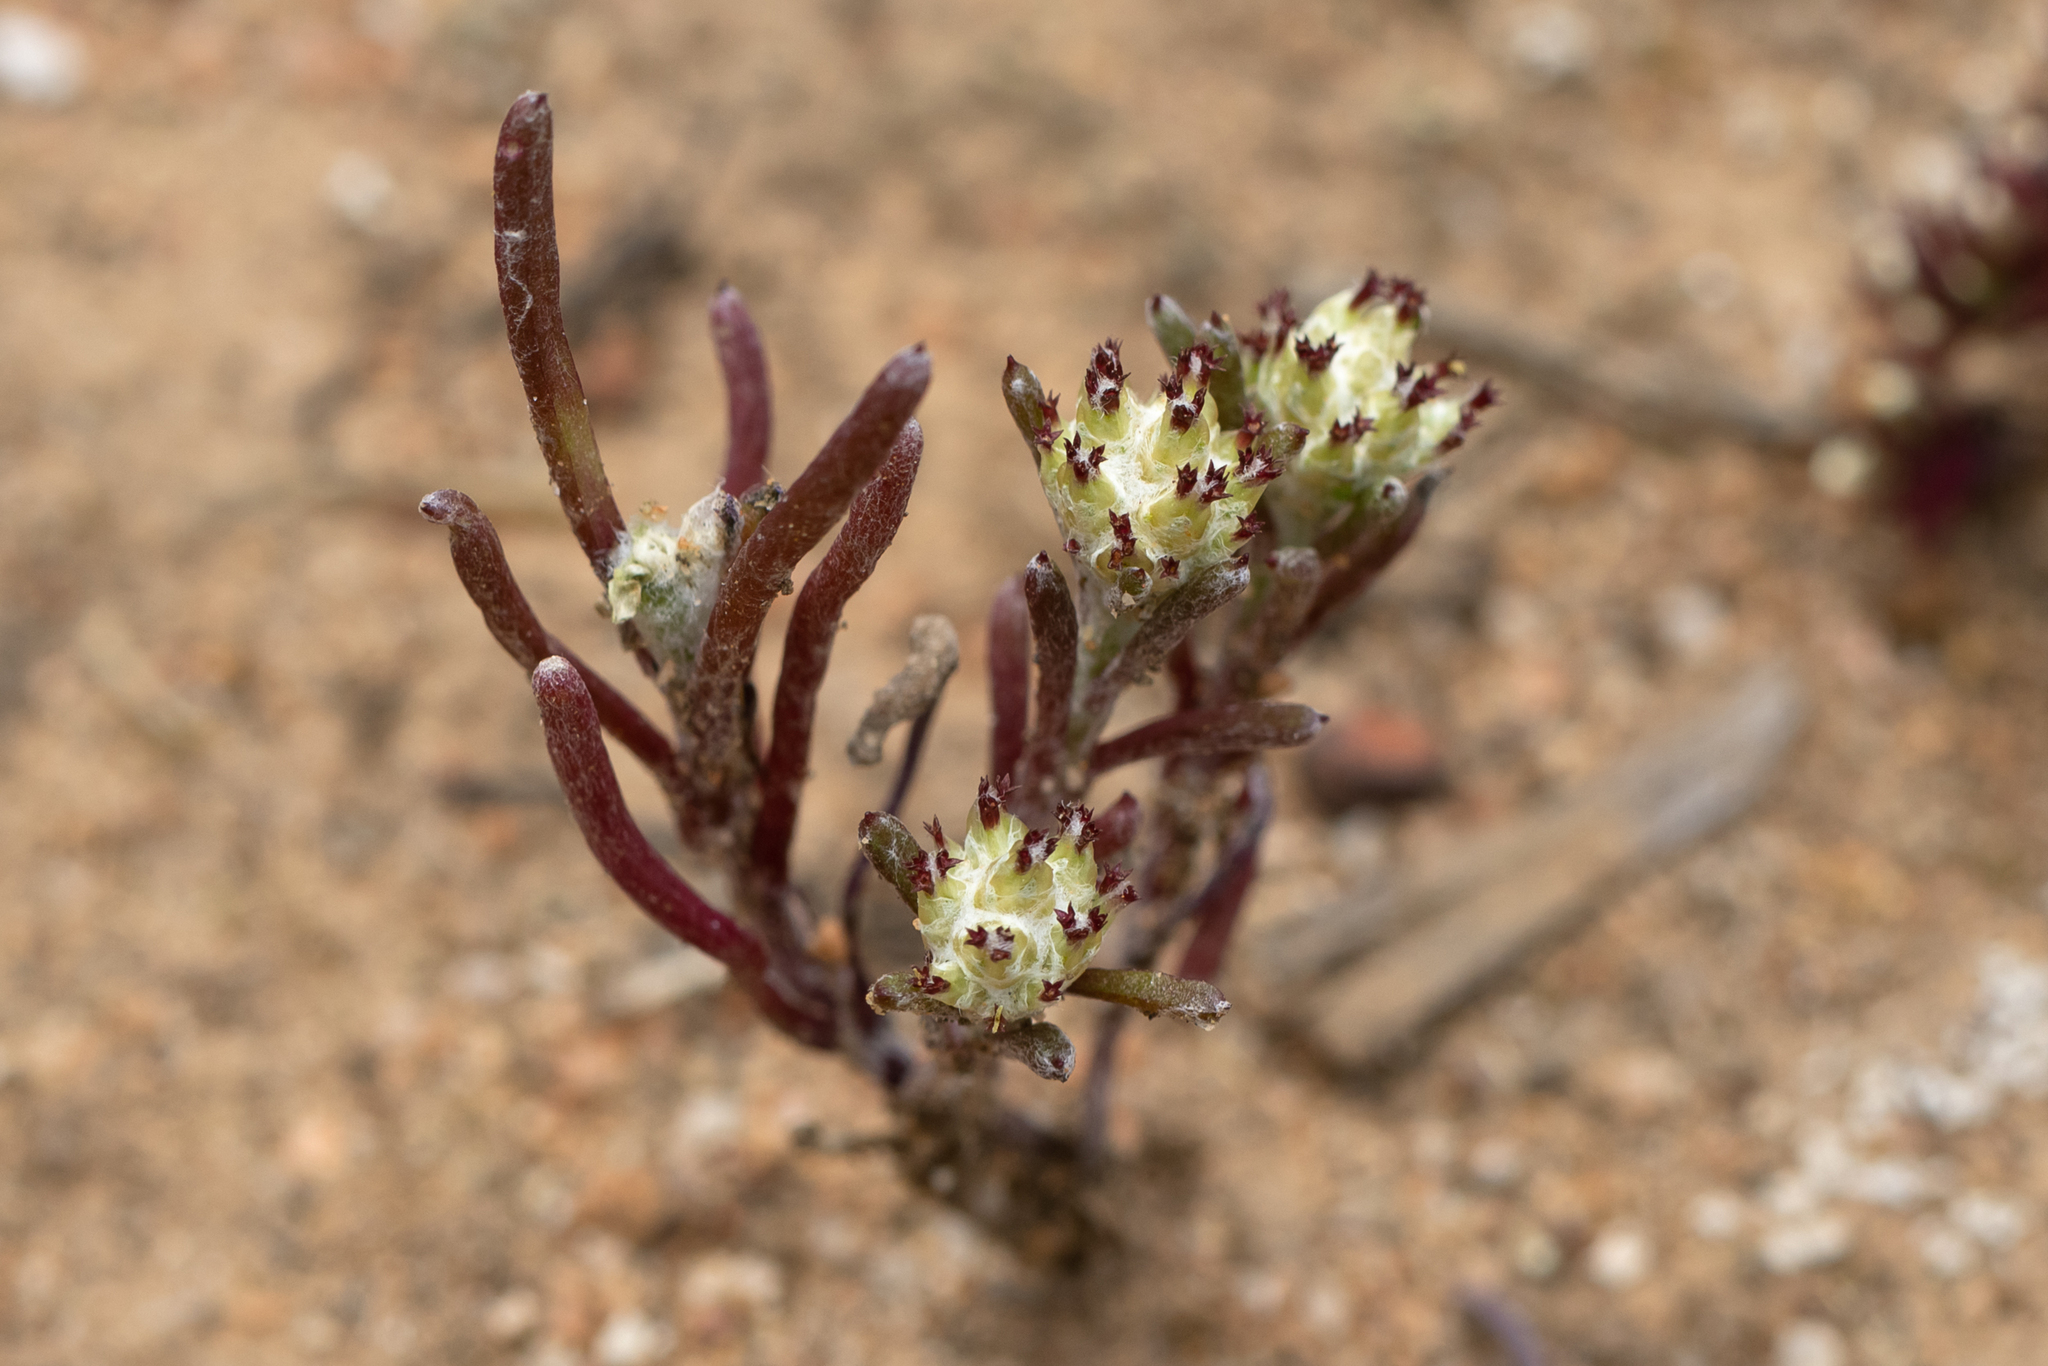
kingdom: Plantae
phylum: Tracheophyta
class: Magnoliopsida
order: Asterales
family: Asteraceae
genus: Blennospora
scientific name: Blennospora drummondii
